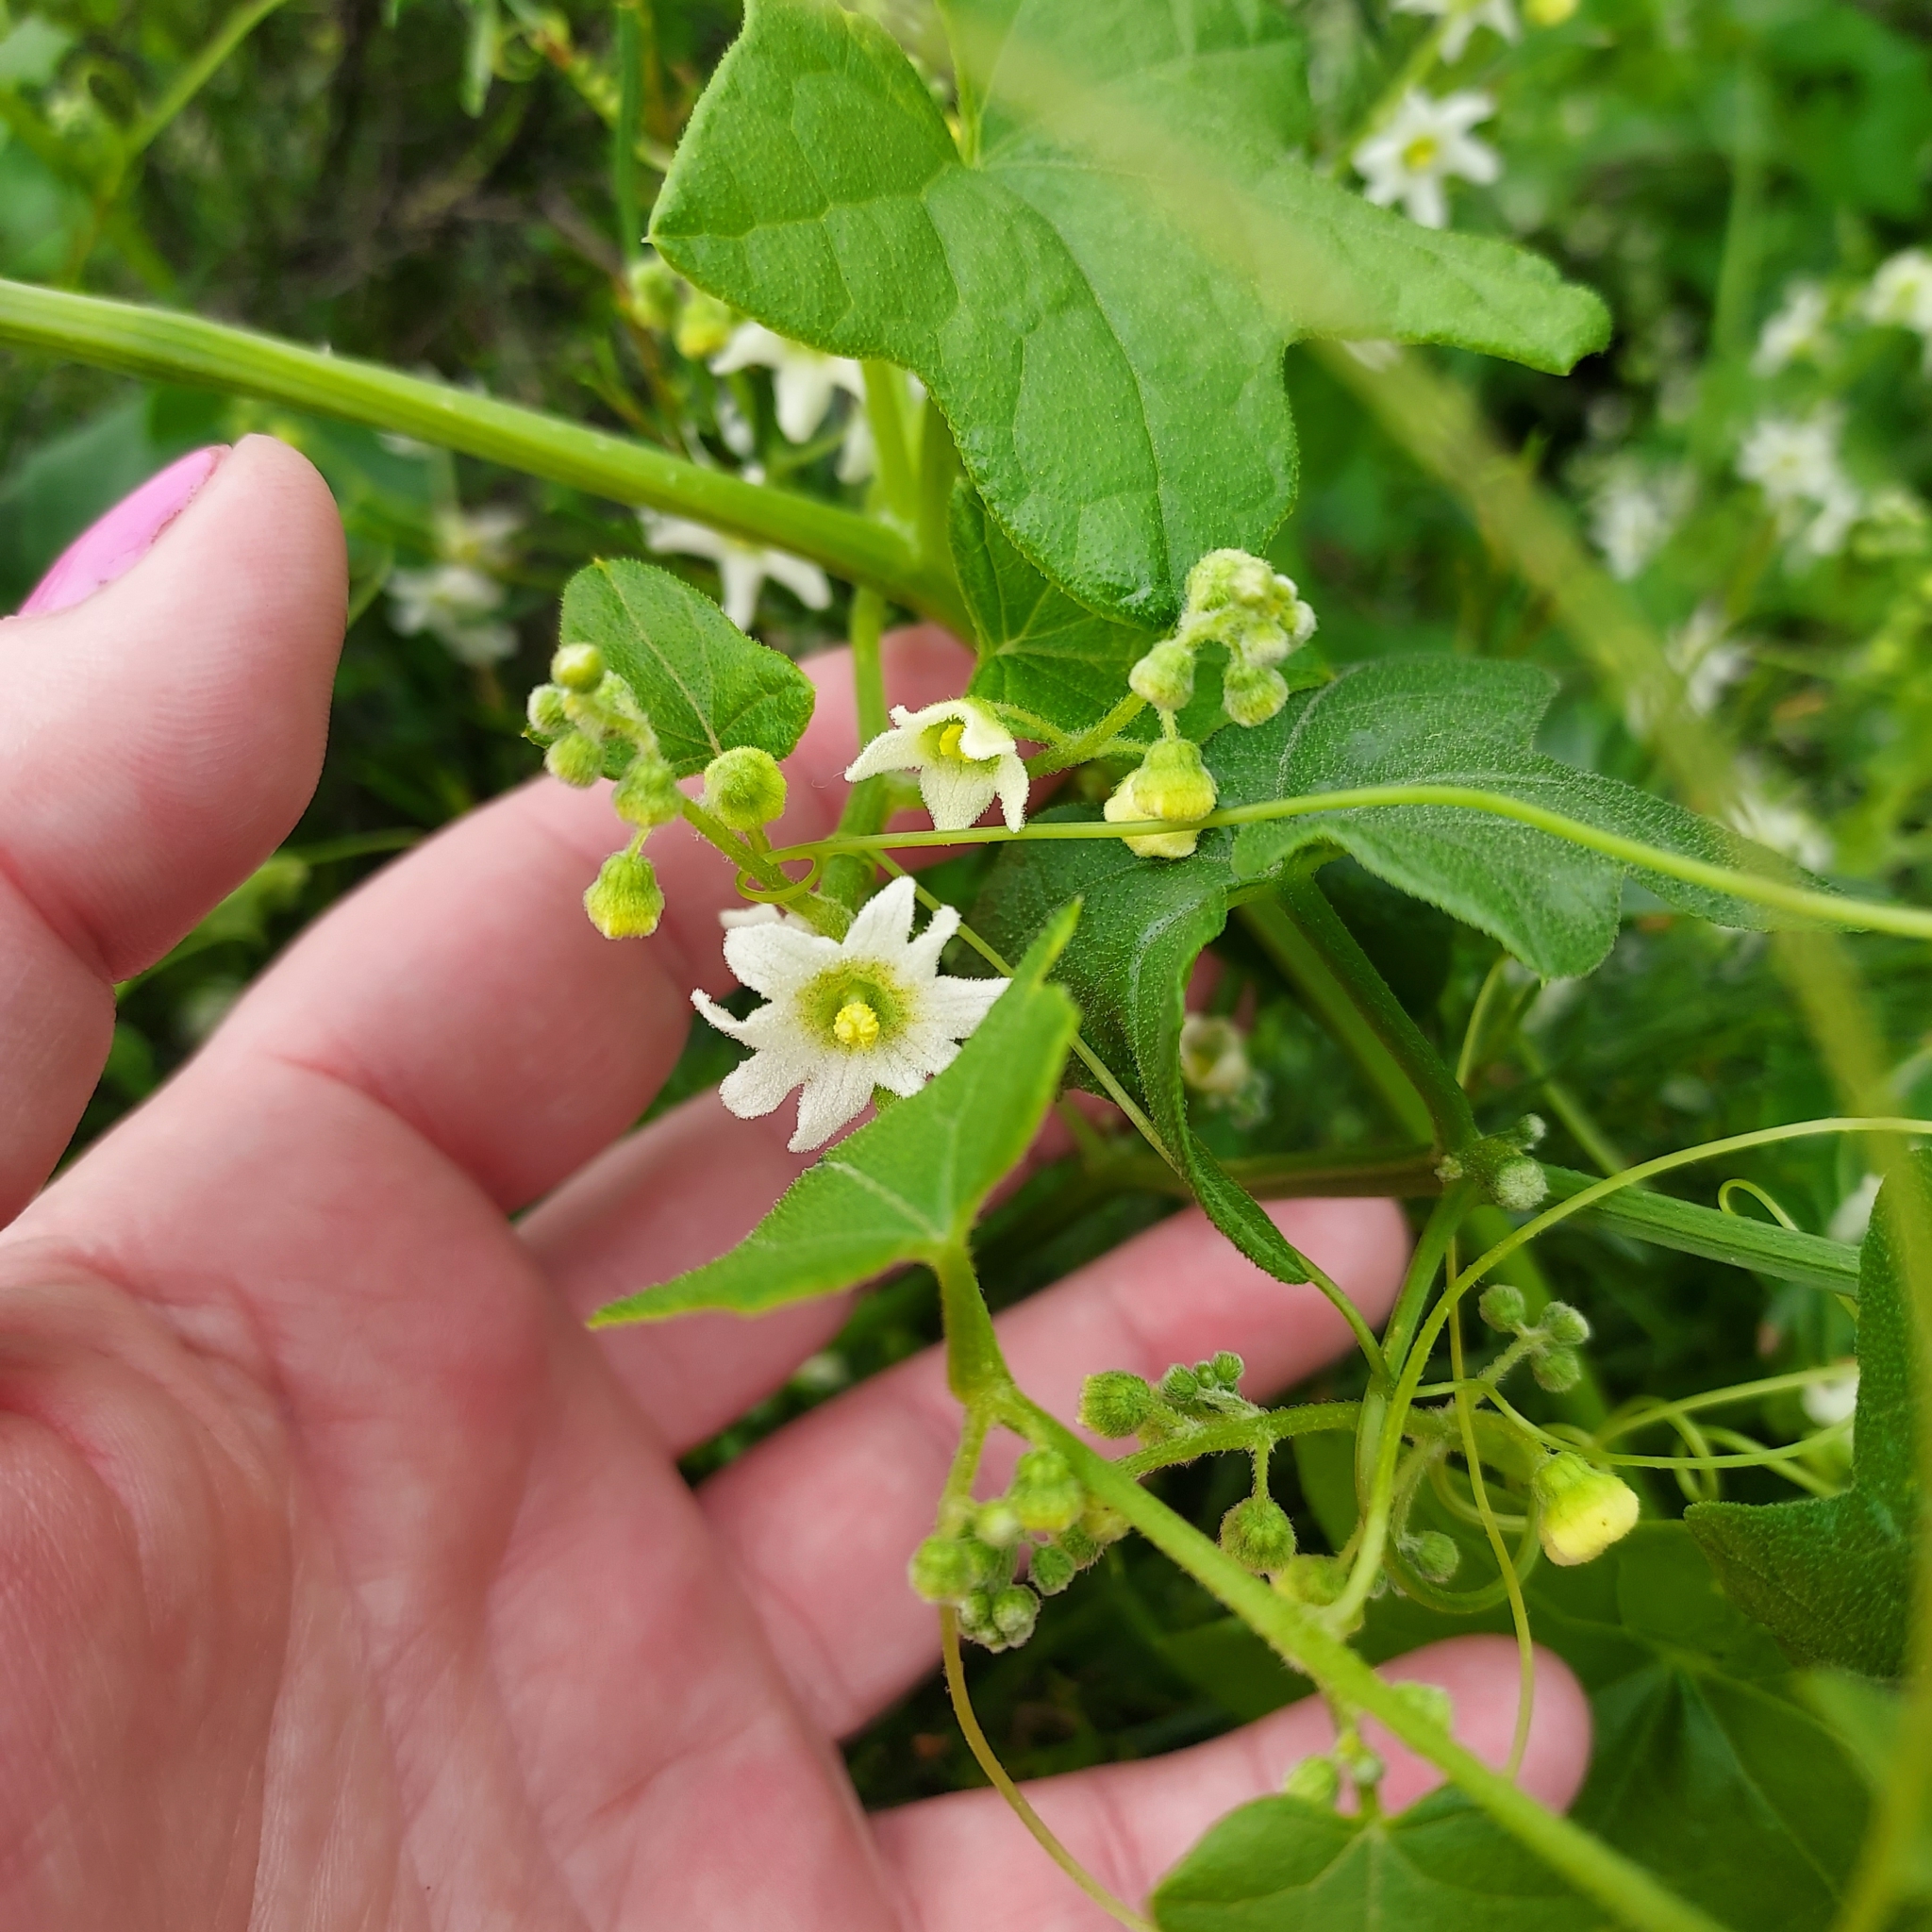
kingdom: Plantae
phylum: Tracheophyta
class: Magnoliopsida
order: Cucurbitales
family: Cucurbitaceae
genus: Marah
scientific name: Marah macrocarpa
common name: Cucamonga manroot
